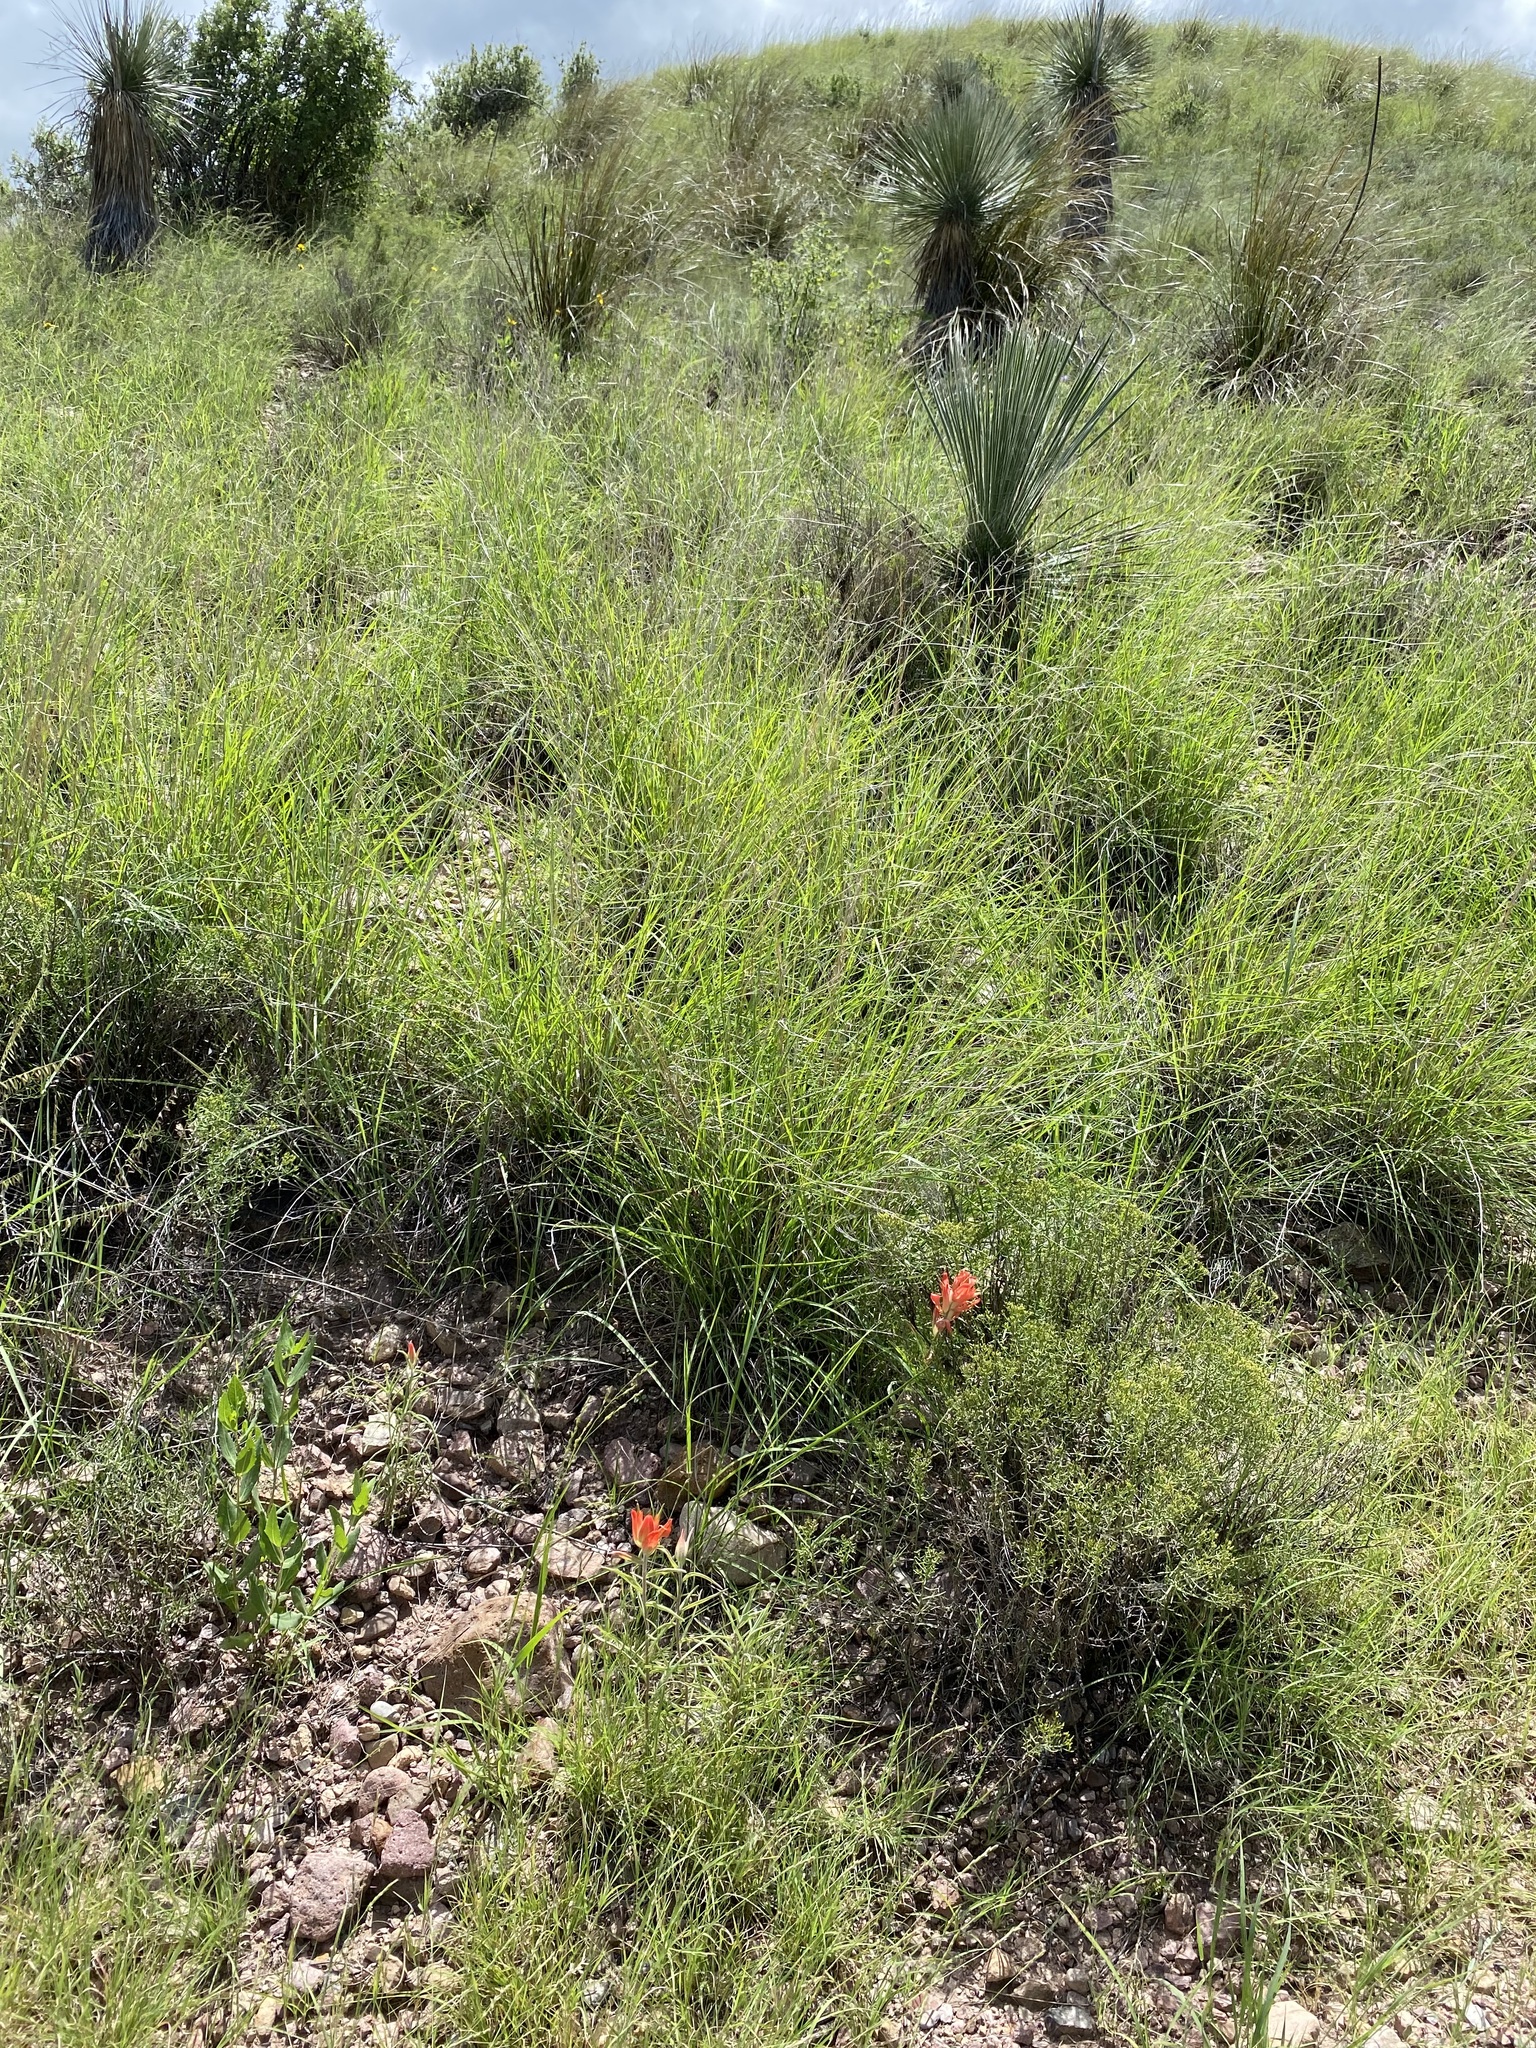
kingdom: Plantae
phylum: Tracheophyta
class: Magnoliopsida
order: Lamiales
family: Orobanchaceae
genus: Castilleja
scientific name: Castilleja integra
